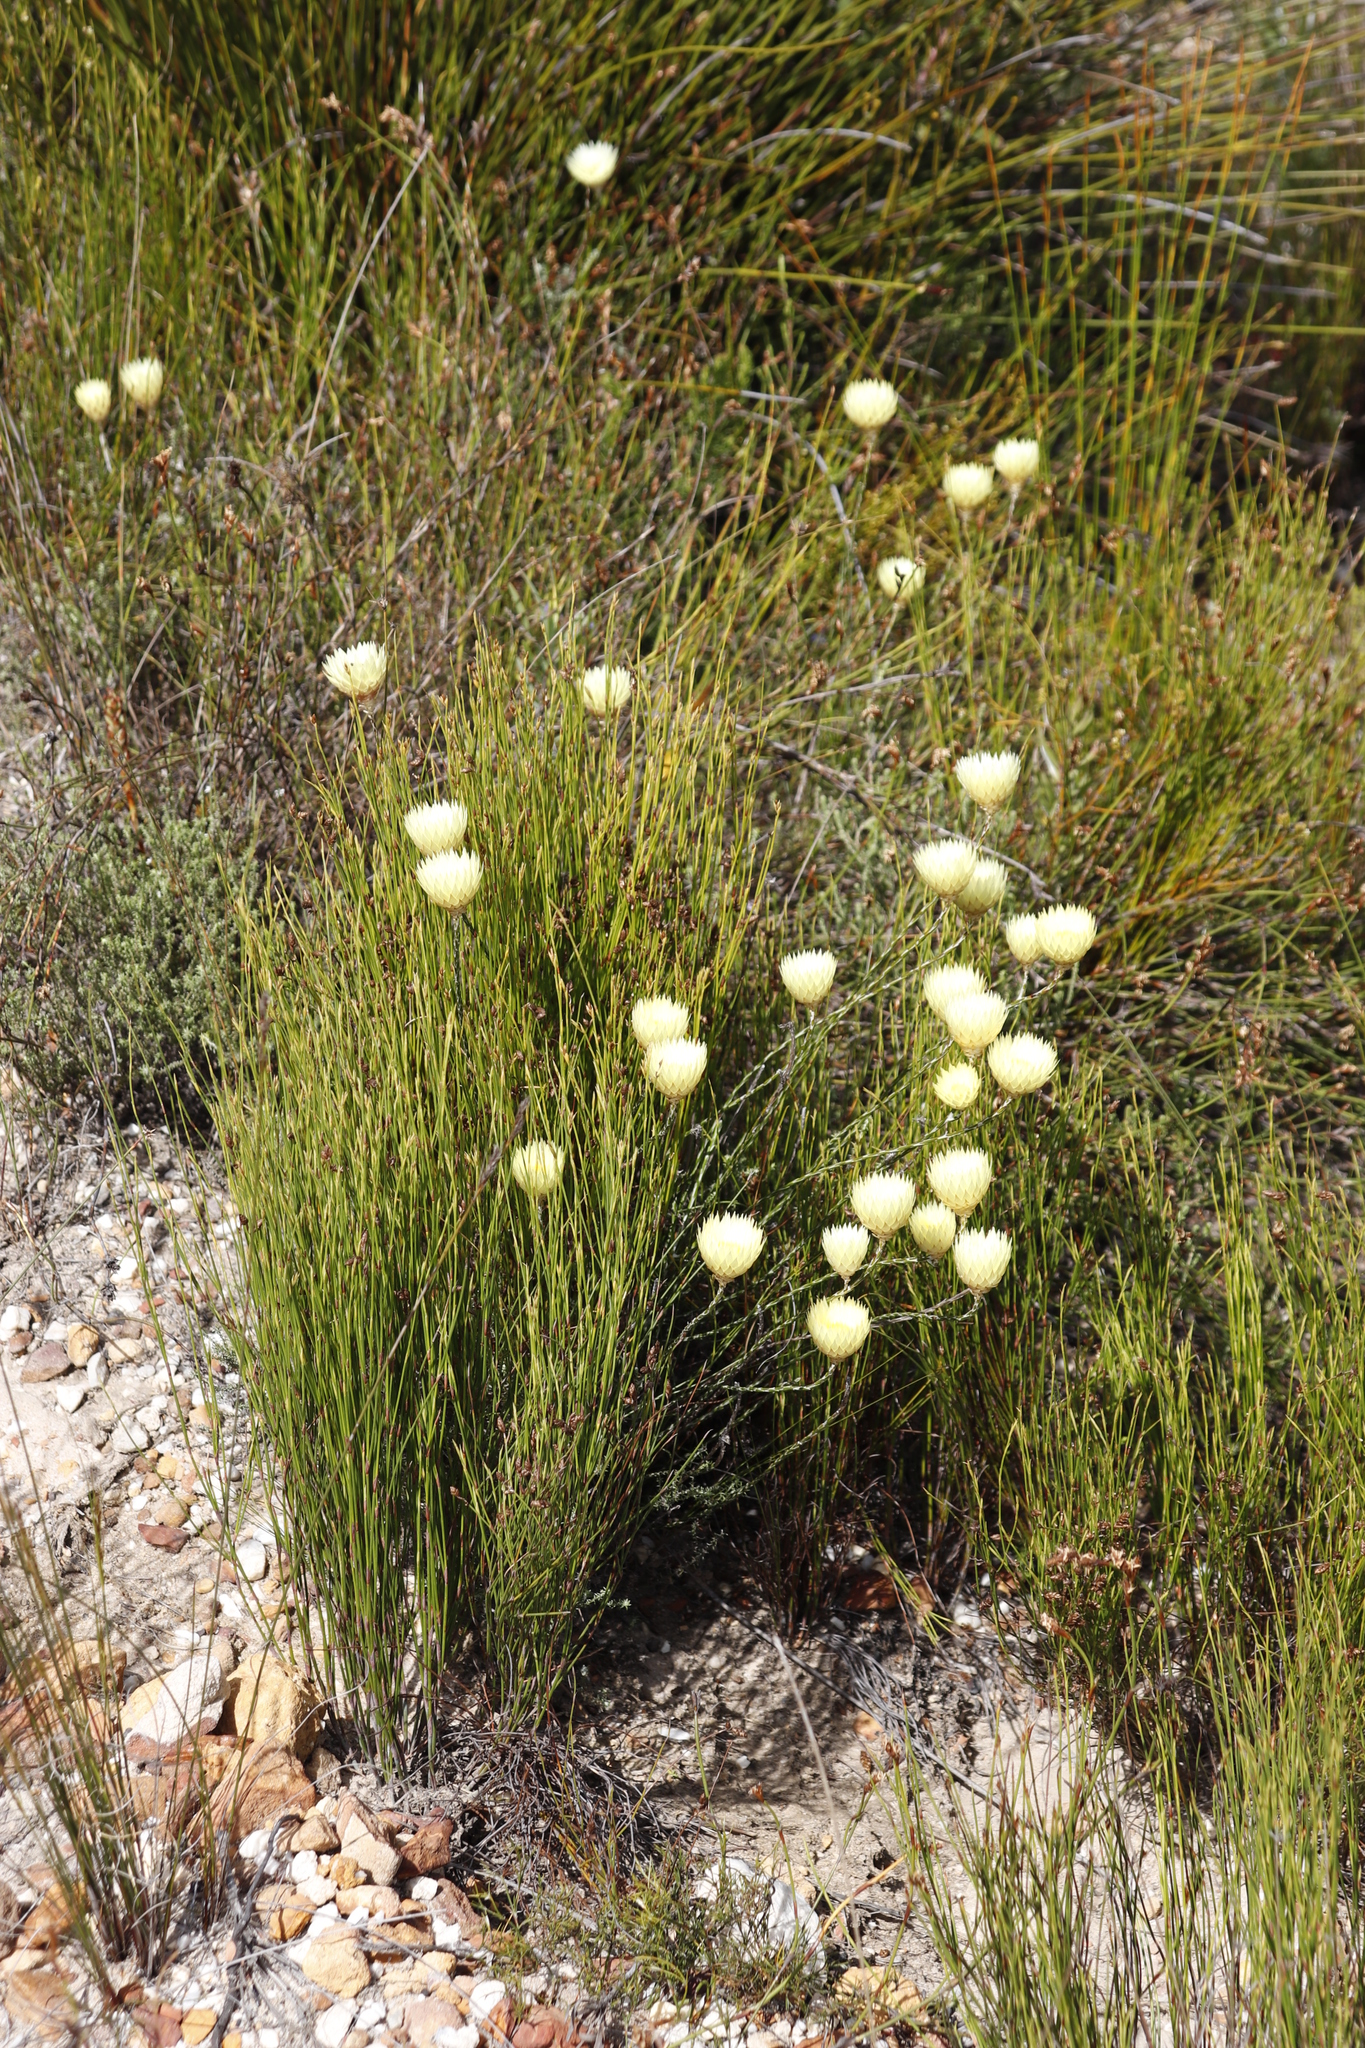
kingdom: Plantae
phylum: Tracheophyta
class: Magnoliopsida
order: Asterales
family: Asteraceae
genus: Edmondia
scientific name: Edmondia sesamoides
